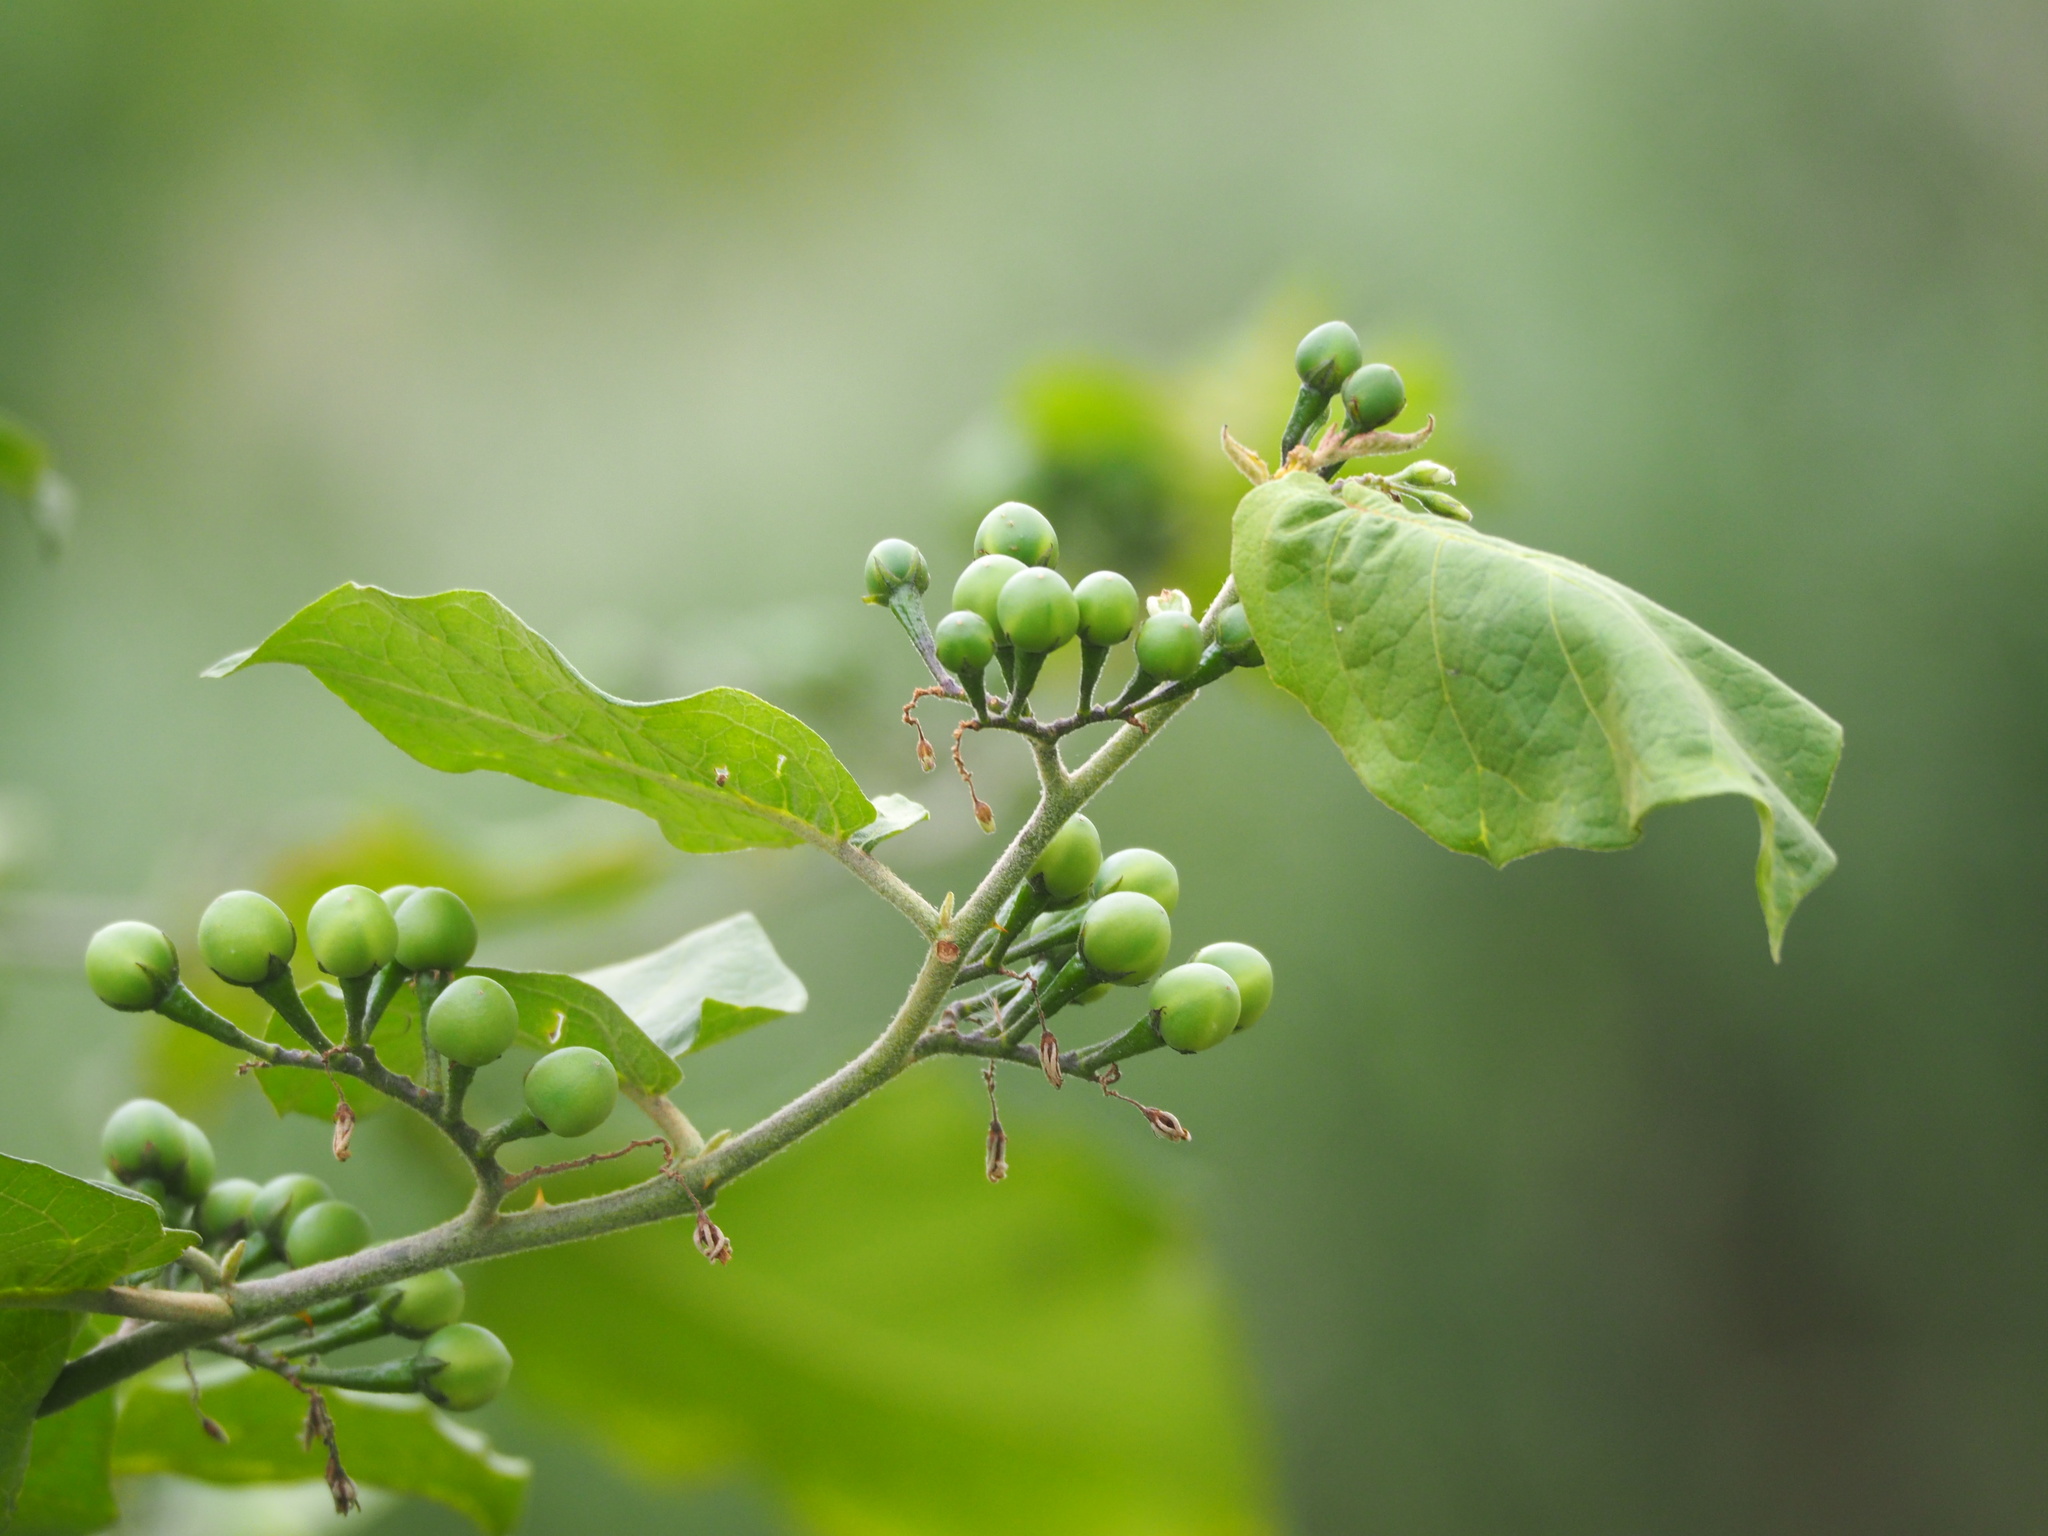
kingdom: Plantae
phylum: Tracheophyta
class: Magnoliopsida
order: Solanales
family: Solanaceae
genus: Solanum
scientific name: Solanum torvum
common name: Turkey berry
